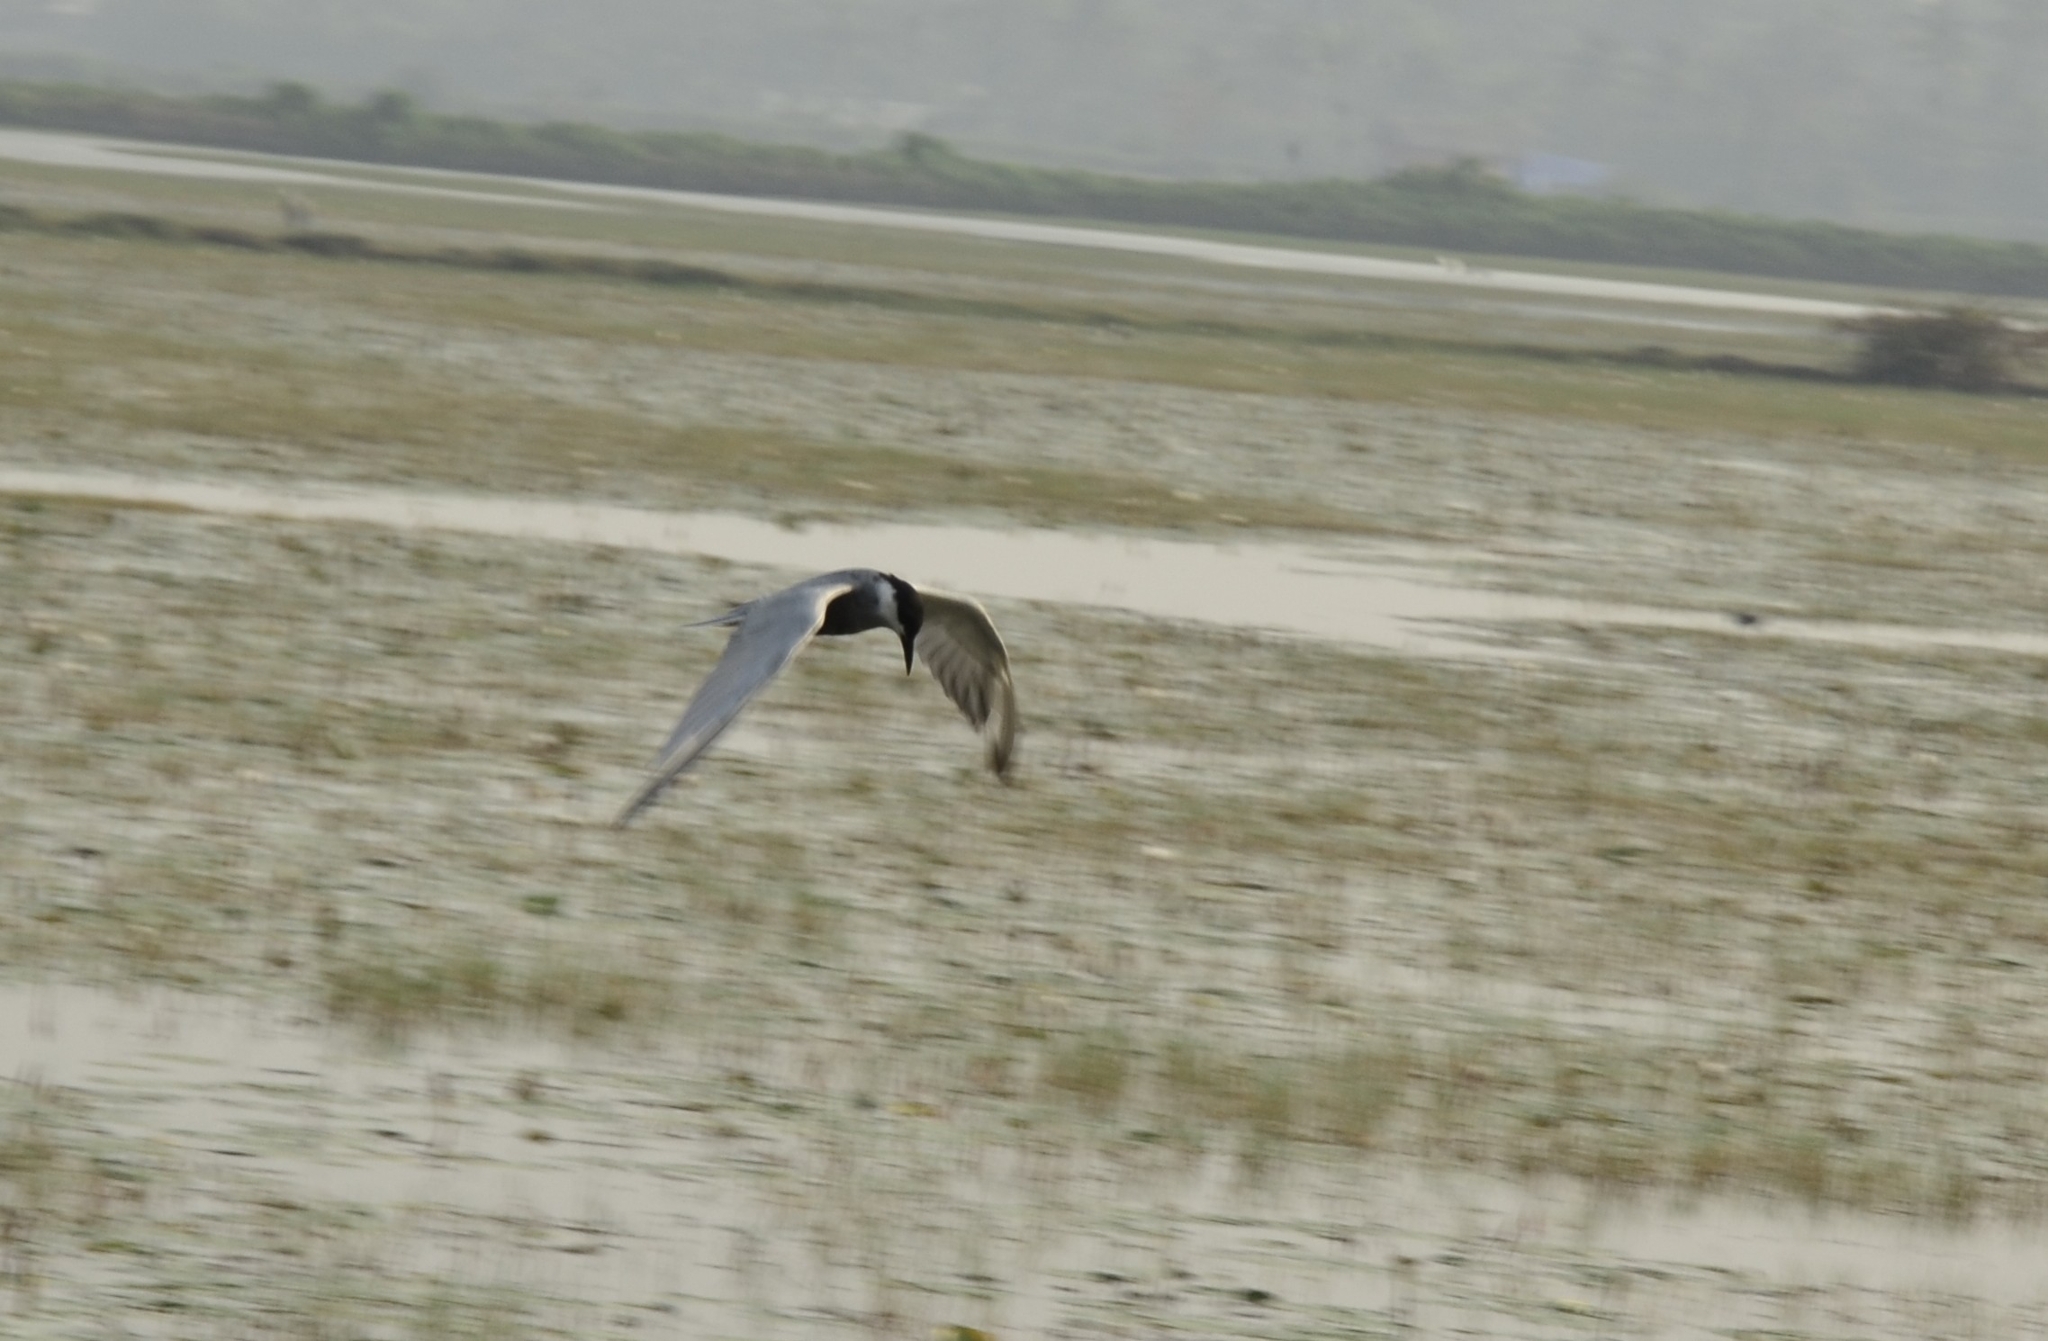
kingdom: Animalia
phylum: Chordata
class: Aves
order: Charadriiformes
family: Laridae
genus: Chlidonias
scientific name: Chlidonias hybrida
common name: Whiskered tern
